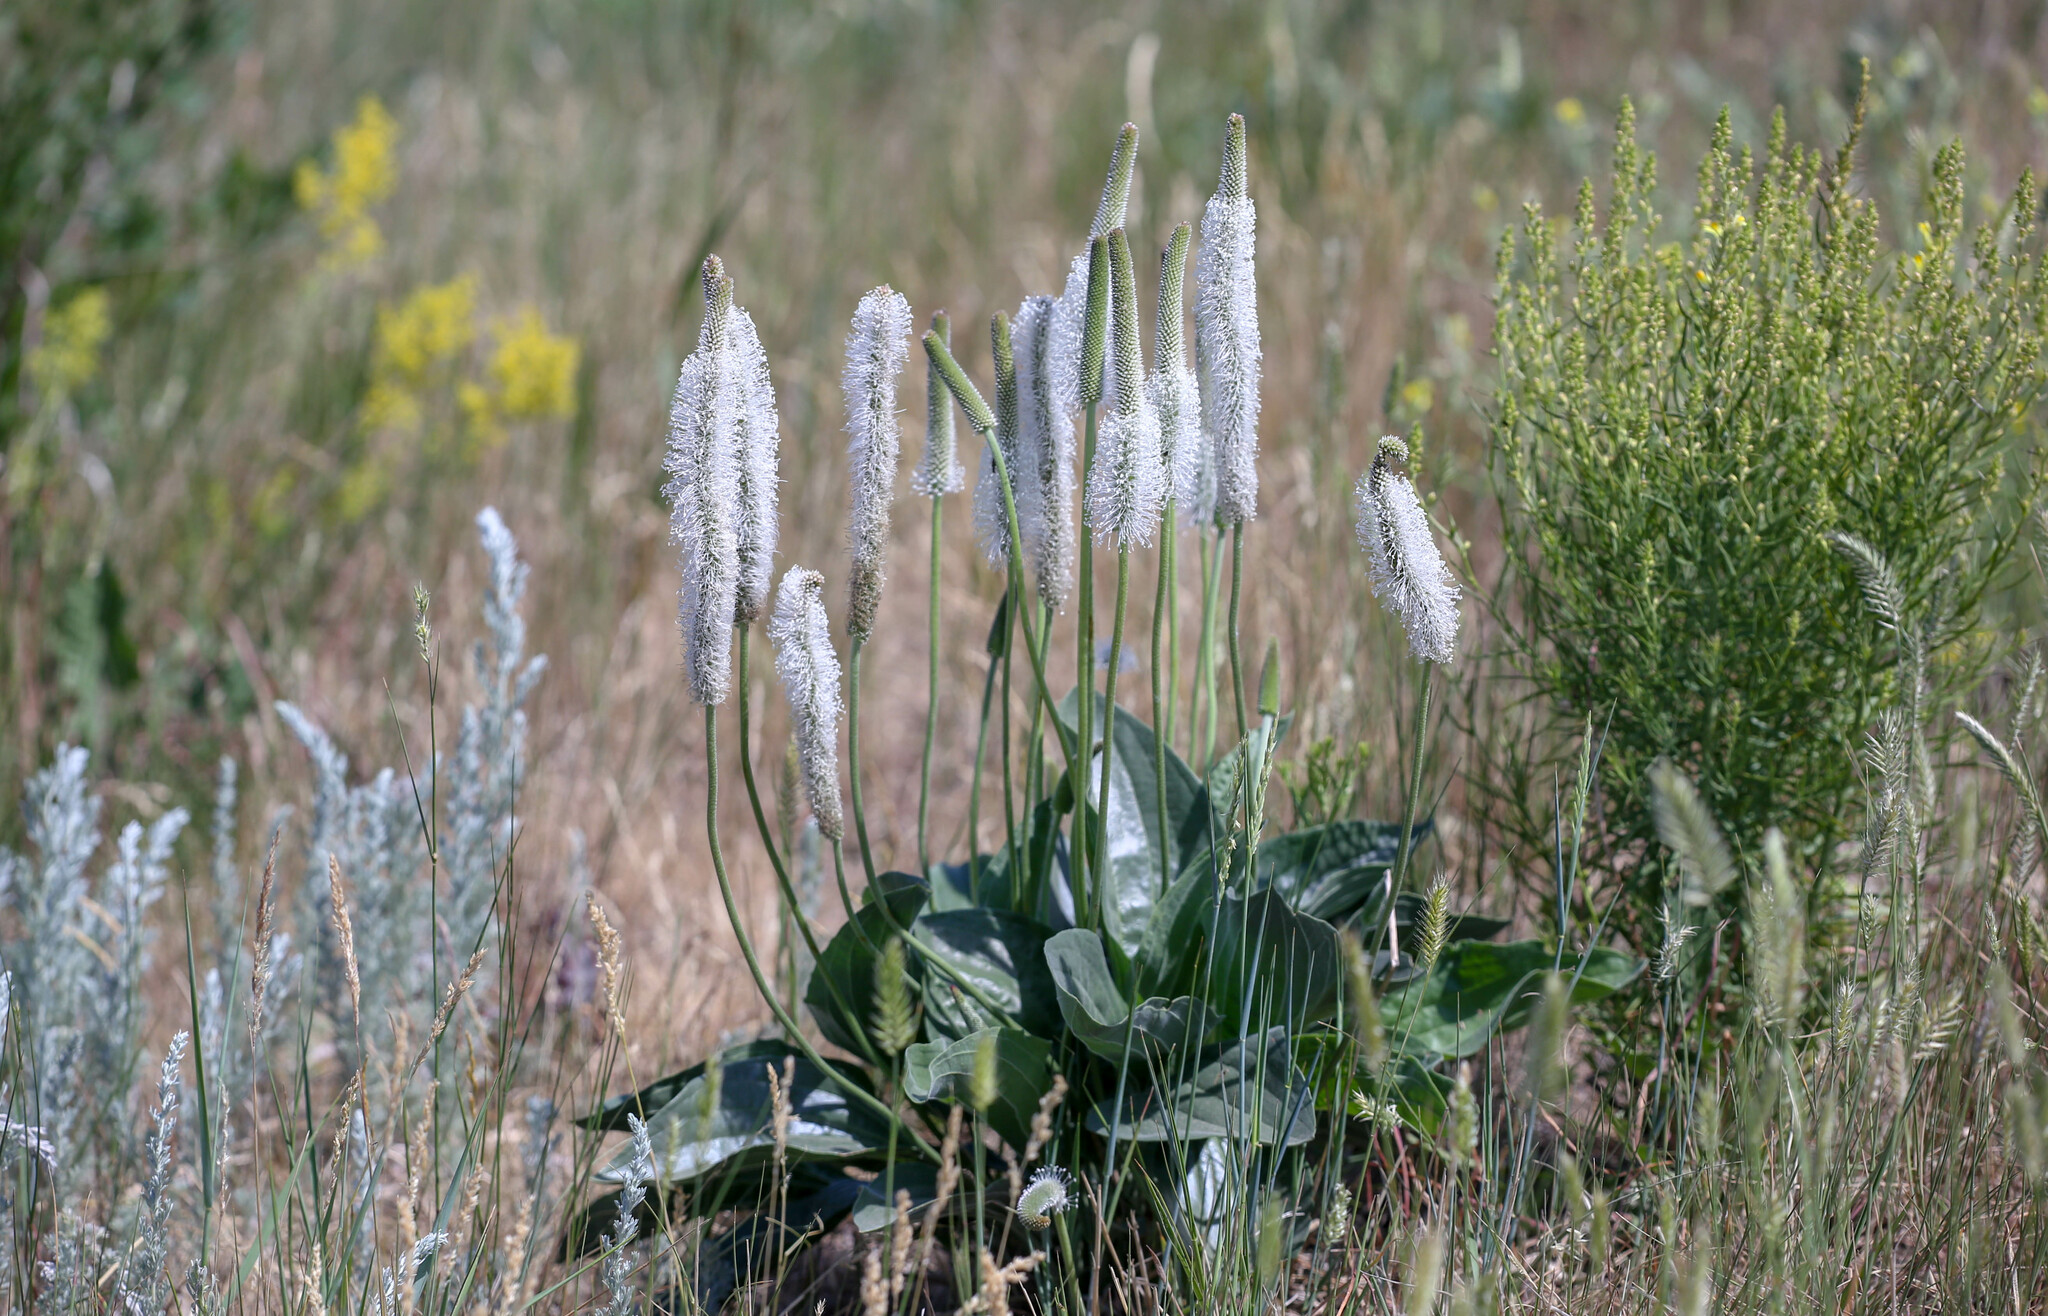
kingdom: Plantae
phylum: Tracheophyta
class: Magnoliopsida
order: Lamiales
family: Plantaginaceae
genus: Plantago
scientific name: Plantago maxima
